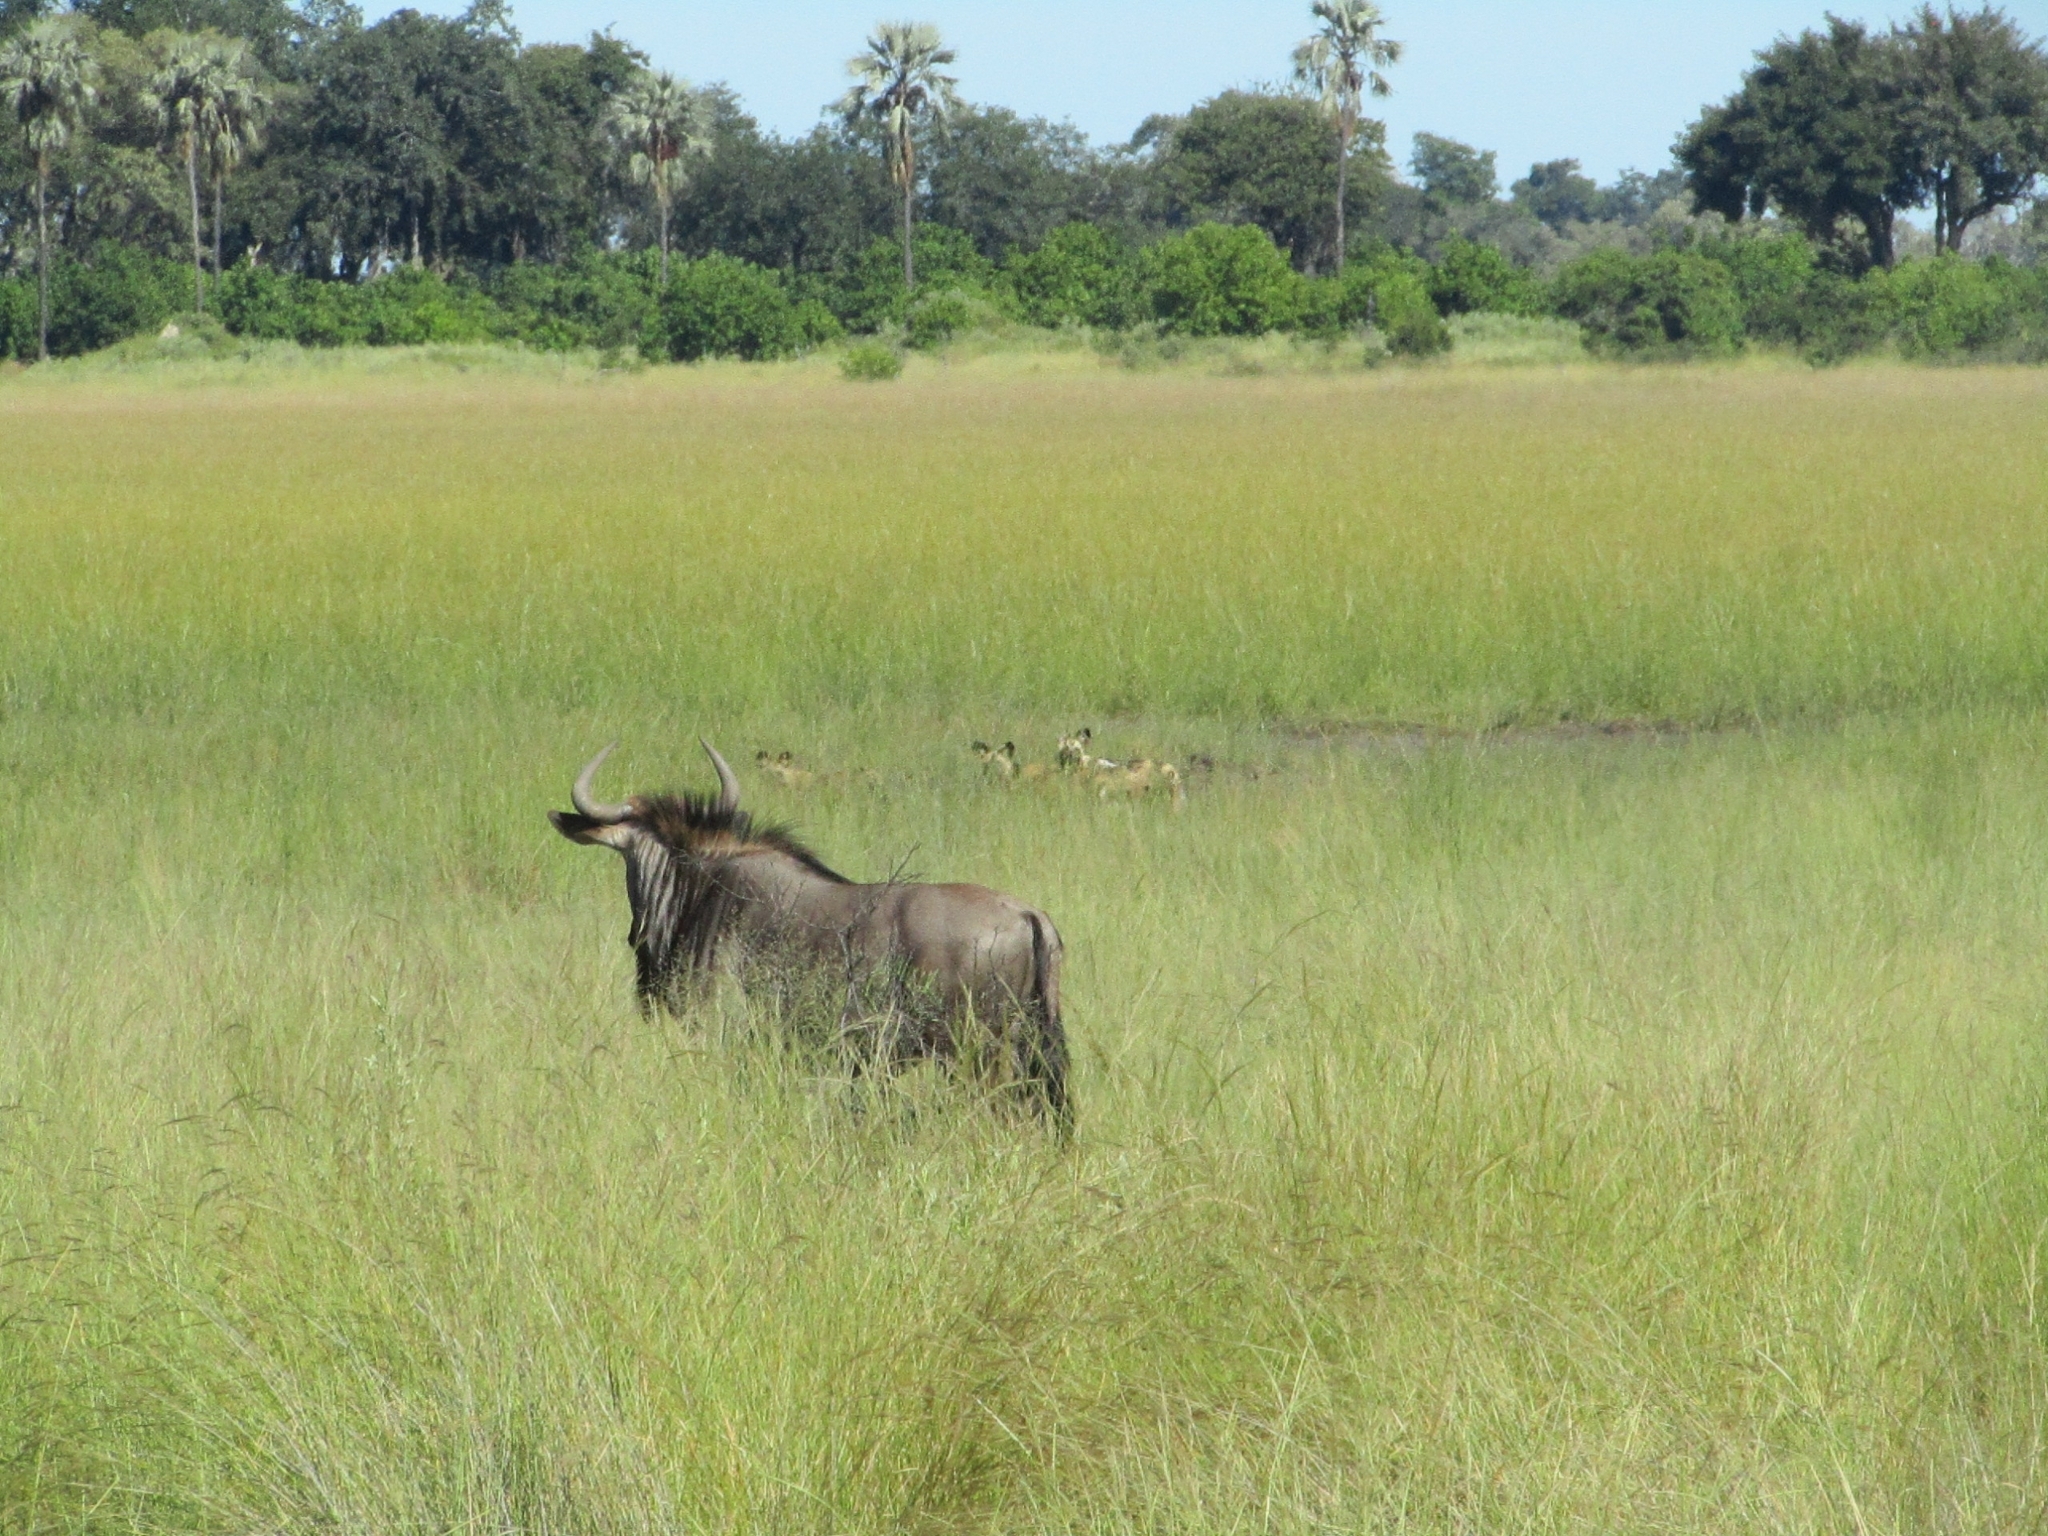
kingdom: Animalia
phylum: Chordata
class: Mammalia
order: Artiodactyla
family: Bovidae
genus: Connochaetes
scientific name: Connochaetes taurinus
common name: Blue wildebeest
